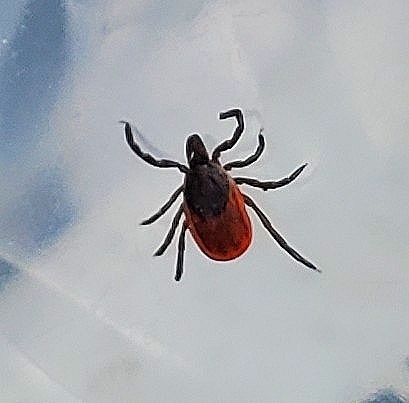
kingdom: Animalia
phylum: Arthropoda
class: Arachnida
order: Ixodida
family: Ixodidae
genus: Ixodes
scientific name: Ixodes scapularis
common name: Black legged tick
